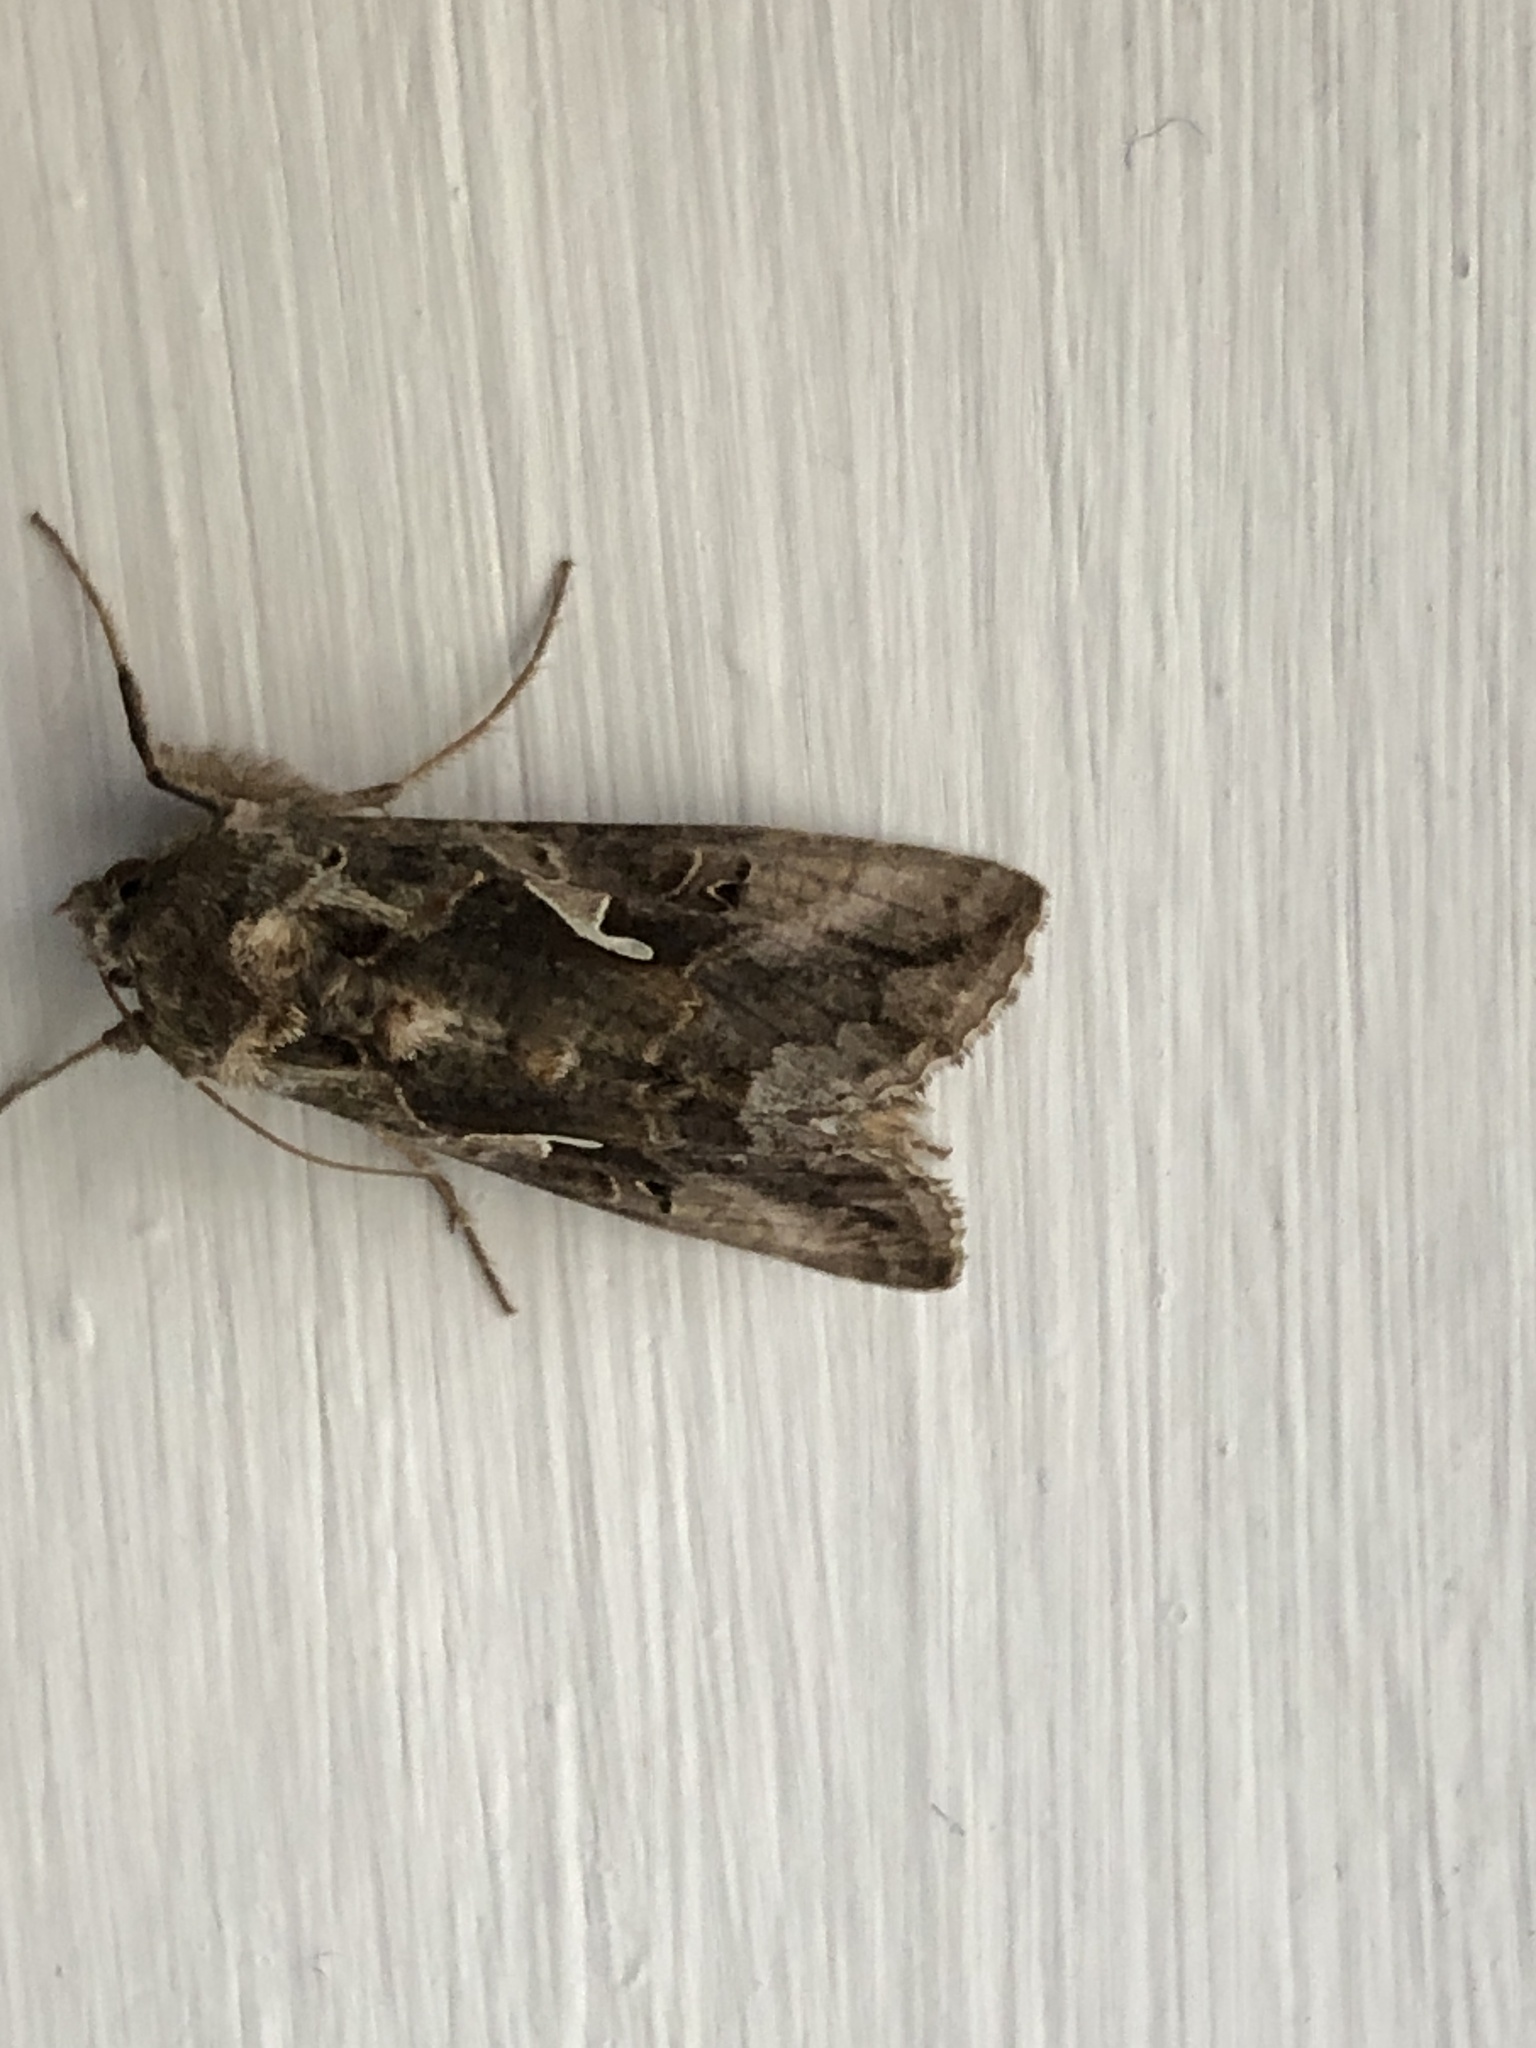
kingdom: Animalia
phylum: Arthropoda
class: Insecta
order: Lepidoptera
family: Noctuidae
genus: Autographa
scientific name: Autographa gamma
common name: Silver y
